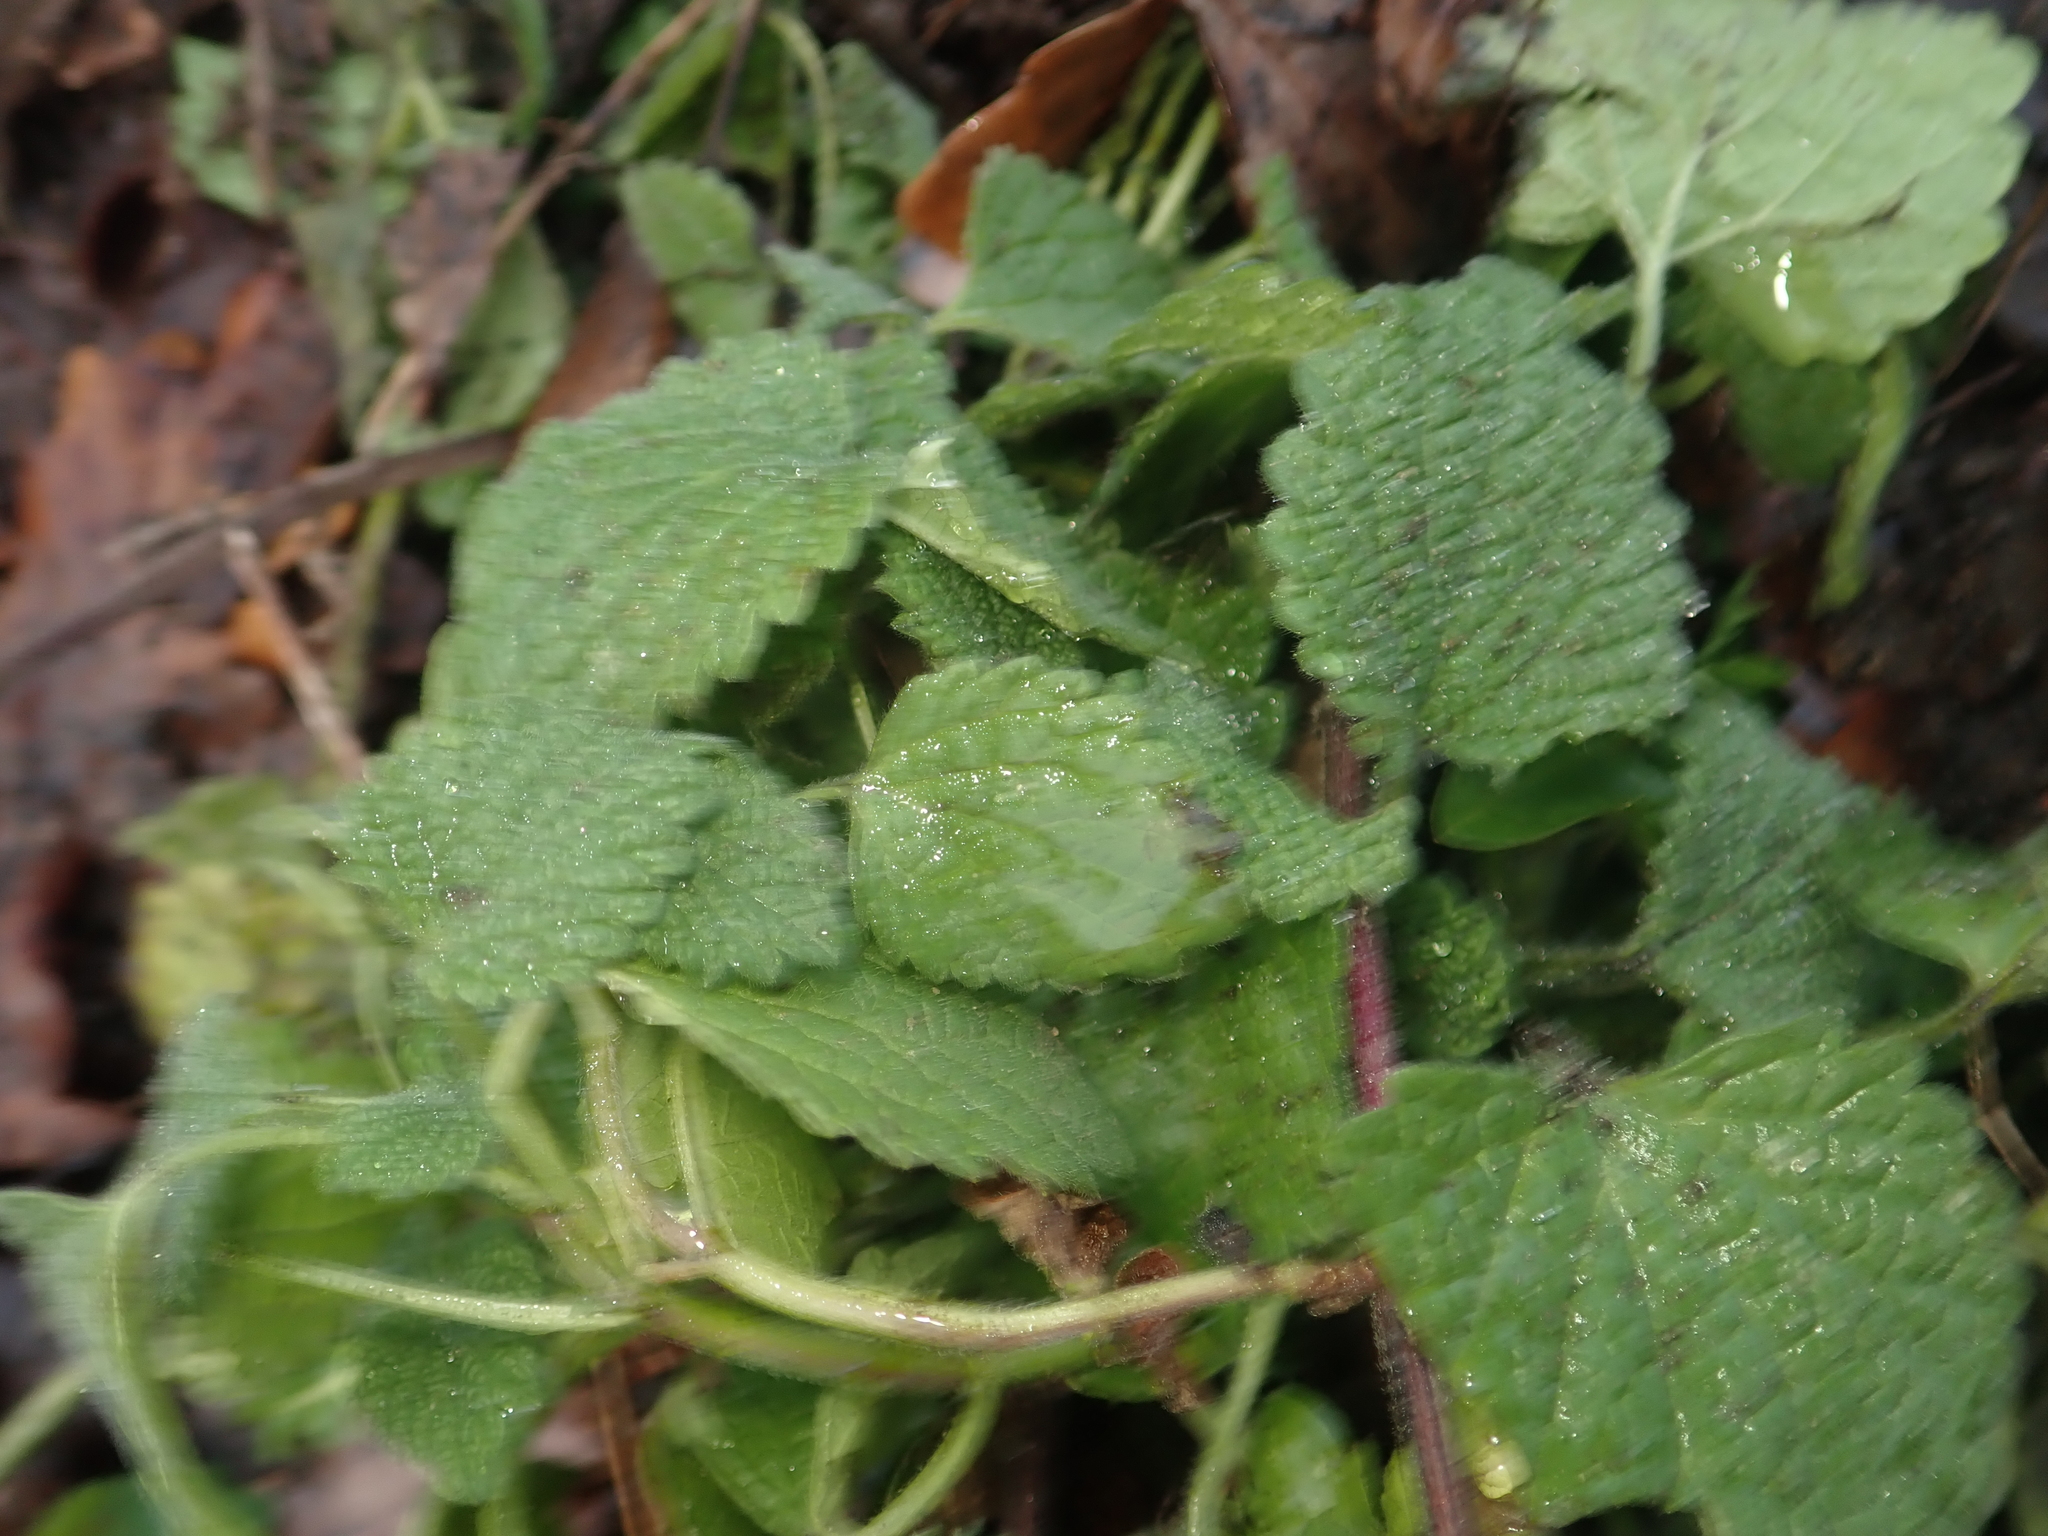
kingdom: Plantae
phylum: Tracheophyta
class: Magnoliopsida
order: Lamiales
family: Lamiaceae
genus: Lamium
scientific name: Lamium purpureum
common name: Red dead-nettle
